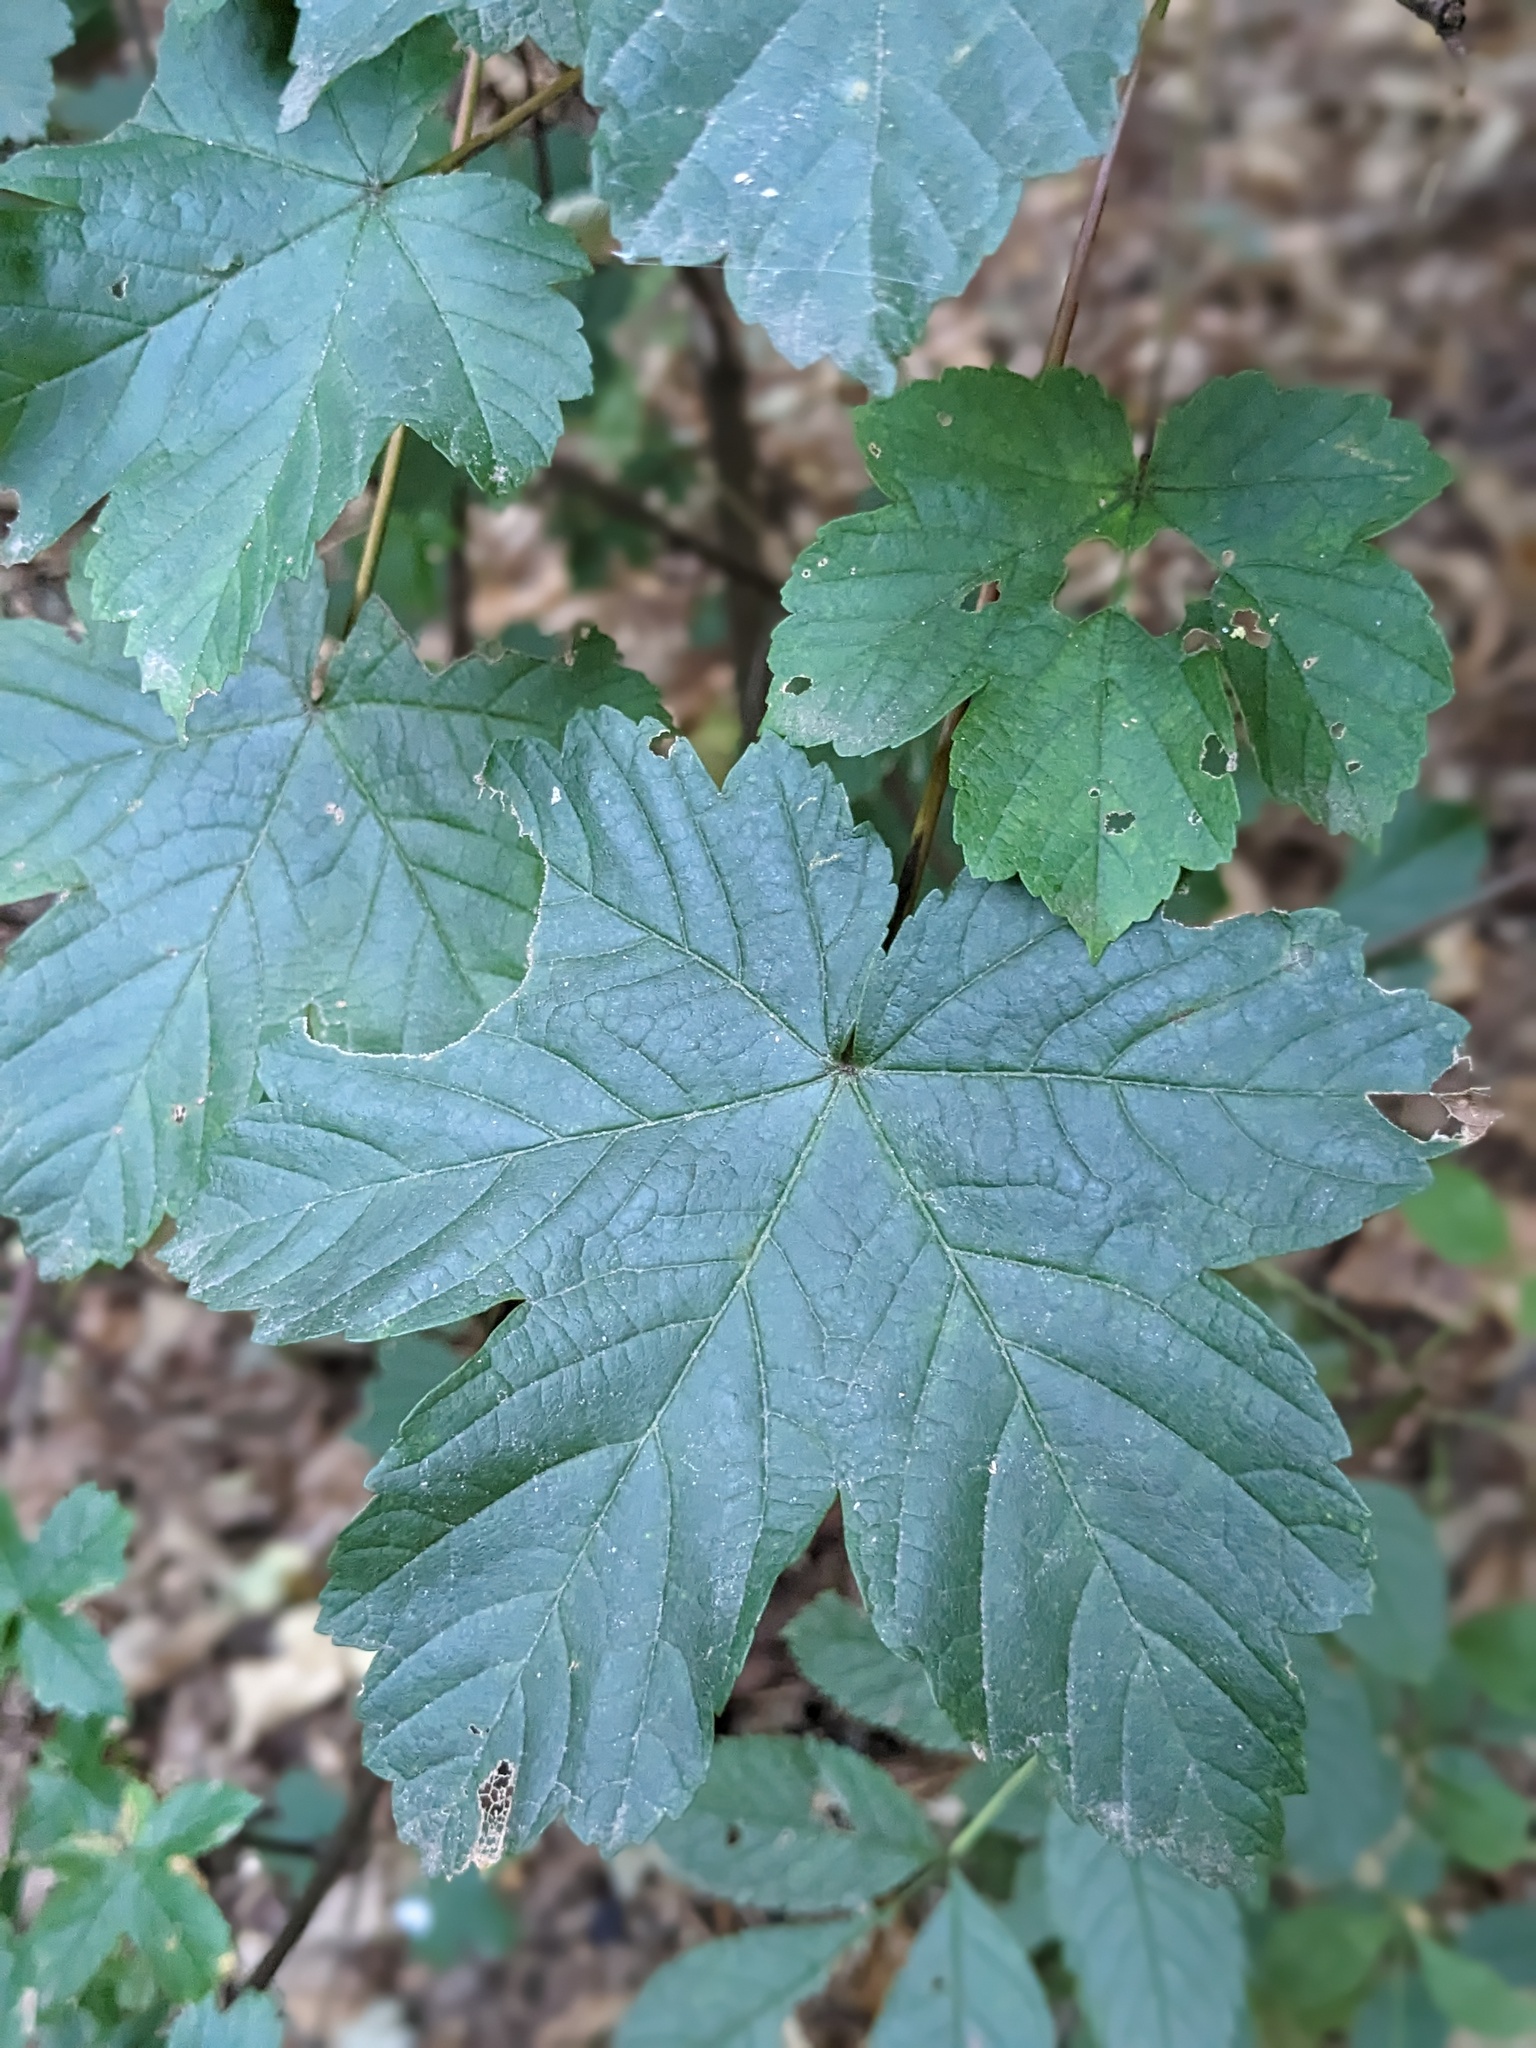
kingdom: Plantae
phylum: Tracheophyta
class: Magnoliopsida
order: Sapindales
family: Sapindaceae
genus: Acer
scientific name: Acer pseudoplatanus
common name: Sycamore
